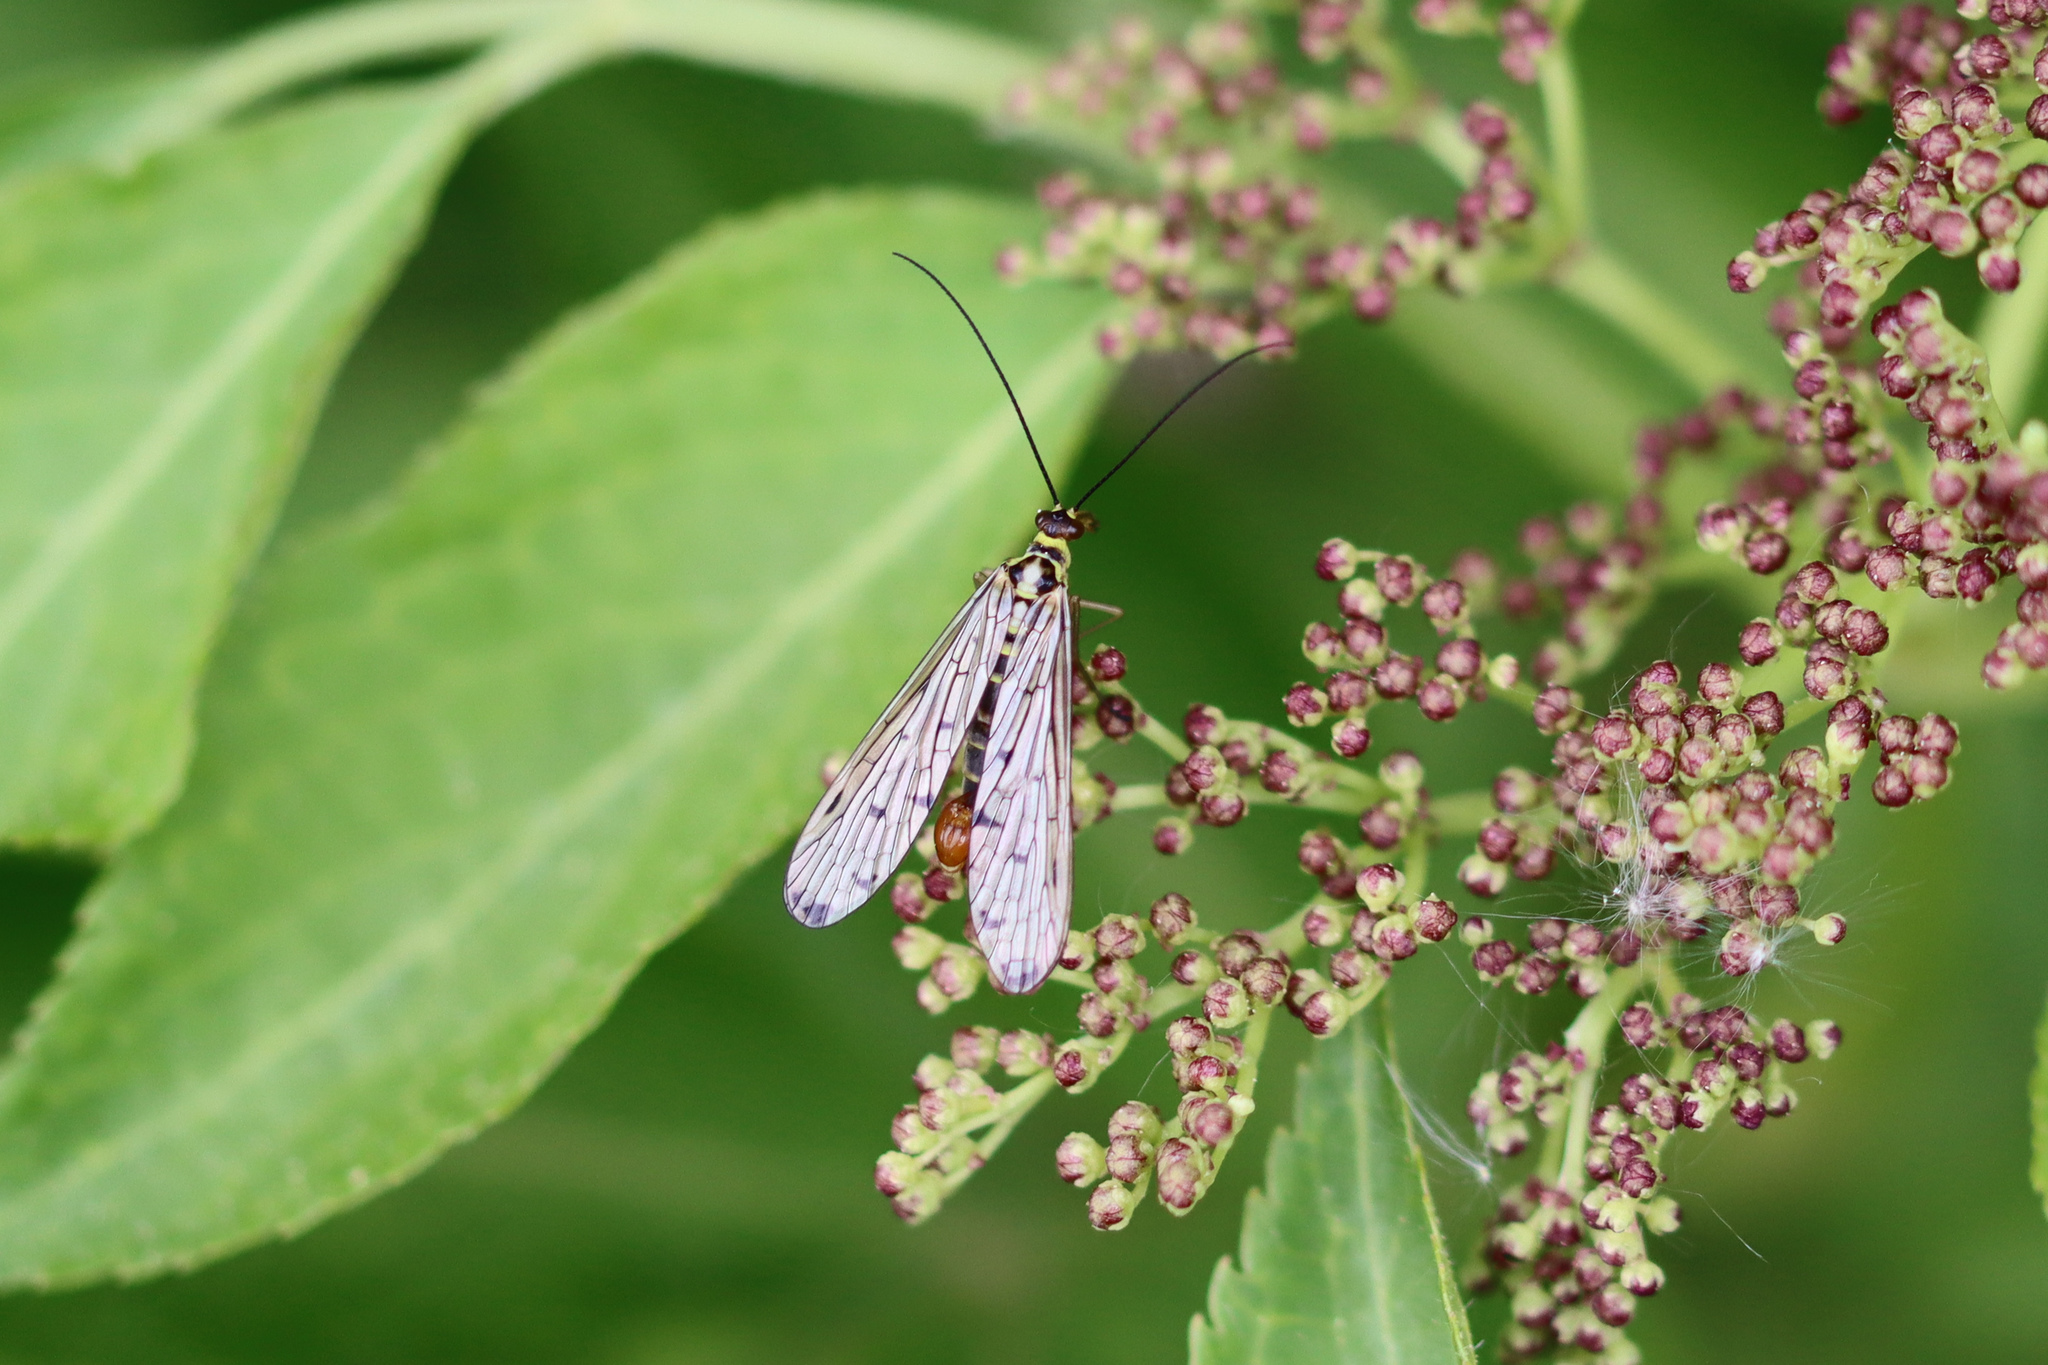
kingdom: Animalia
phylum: Arthropoda
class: Insecta
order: Mecoptera
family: Panorpidae
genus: Panorpa
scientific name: Panorpa germanica
